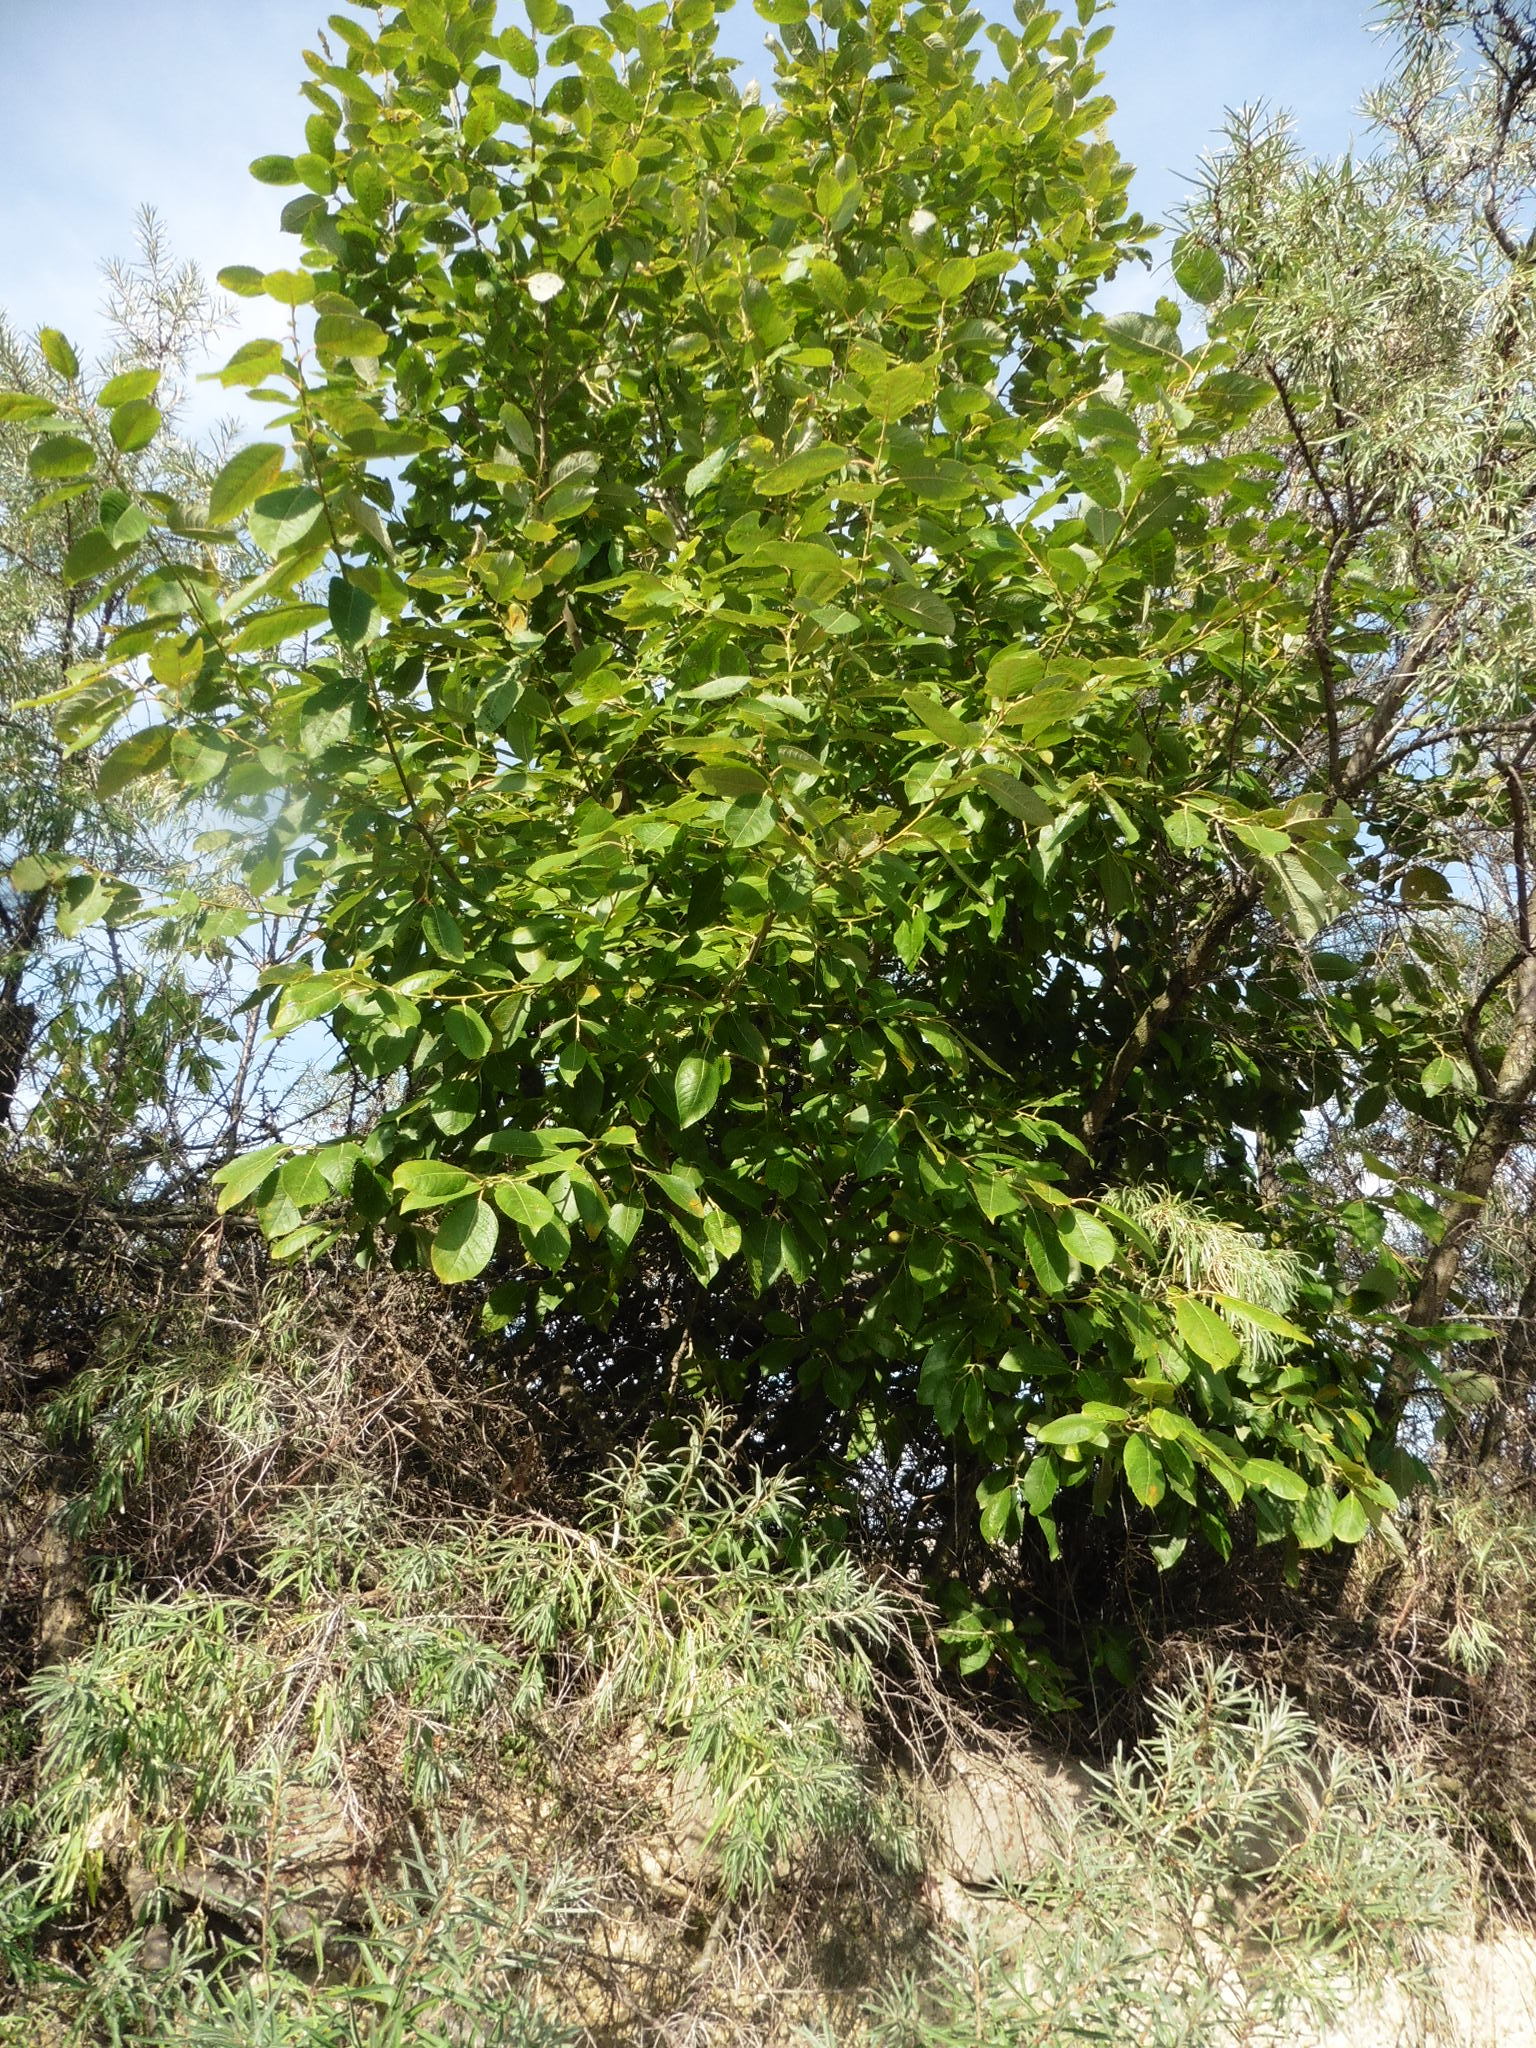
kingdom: Plantae
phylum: Tracheophyta
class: Magnoliopsida
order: Malpighiales
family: Salicaceae
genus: Salix
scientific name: Salix caprea
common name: Goat willow
